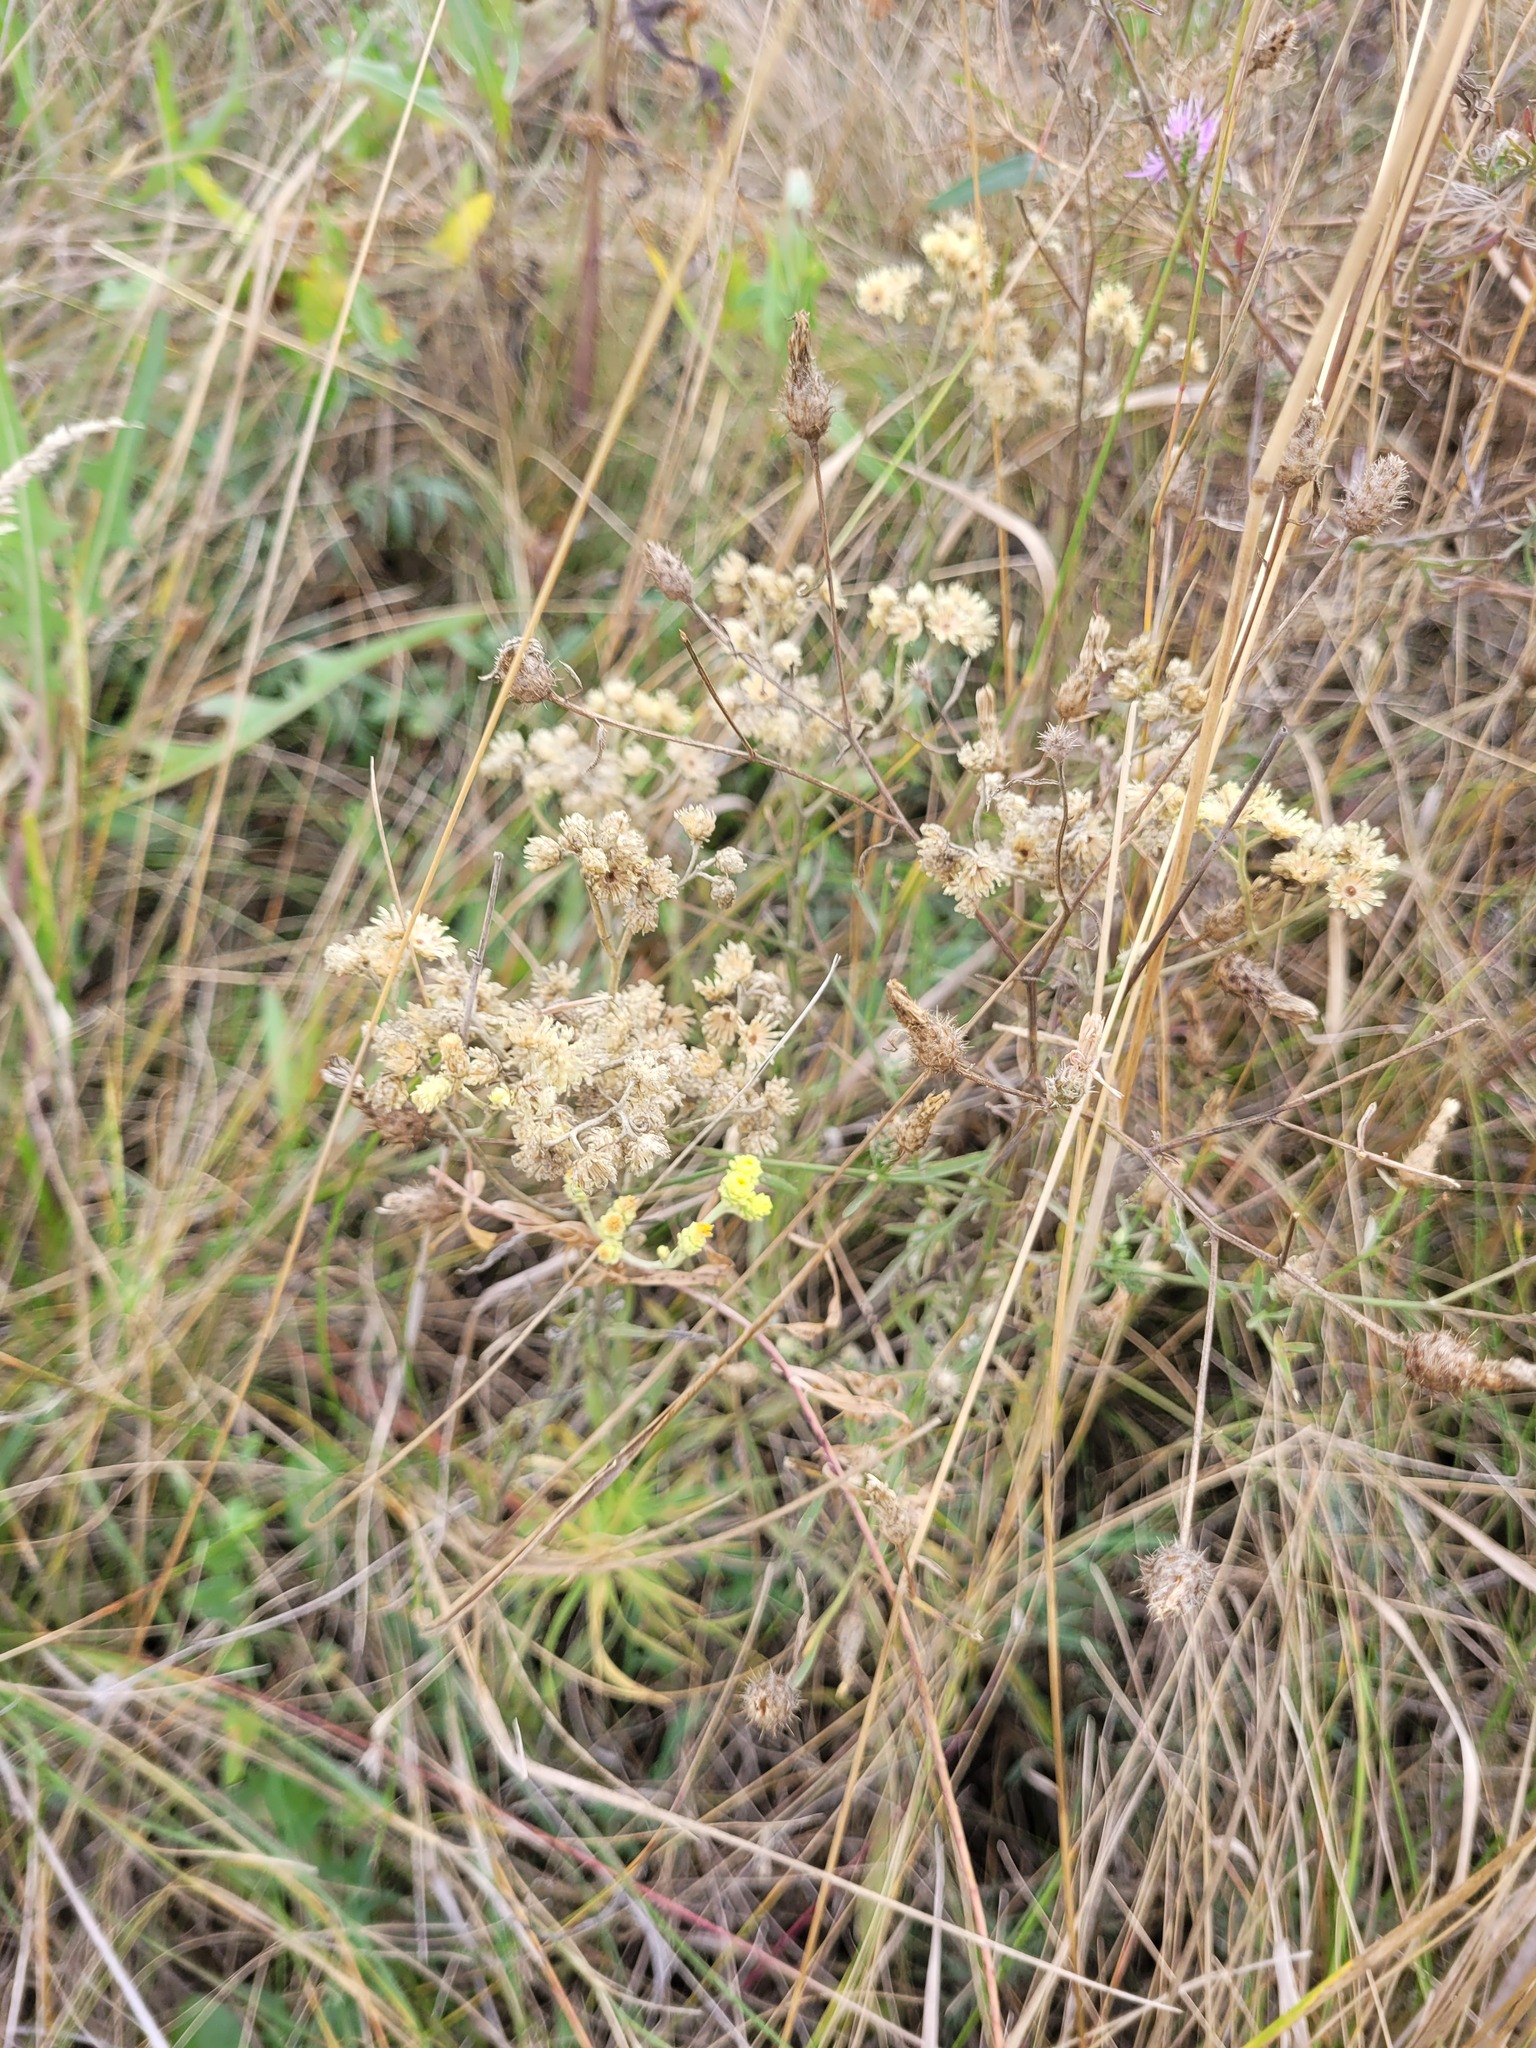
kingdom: Plantae
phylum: Tracheophyta
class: Magnoliopsida
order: Asterales
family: Asteraceae
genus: Helichrysum
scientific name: Helichrysum arenarium
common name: Strawflower
